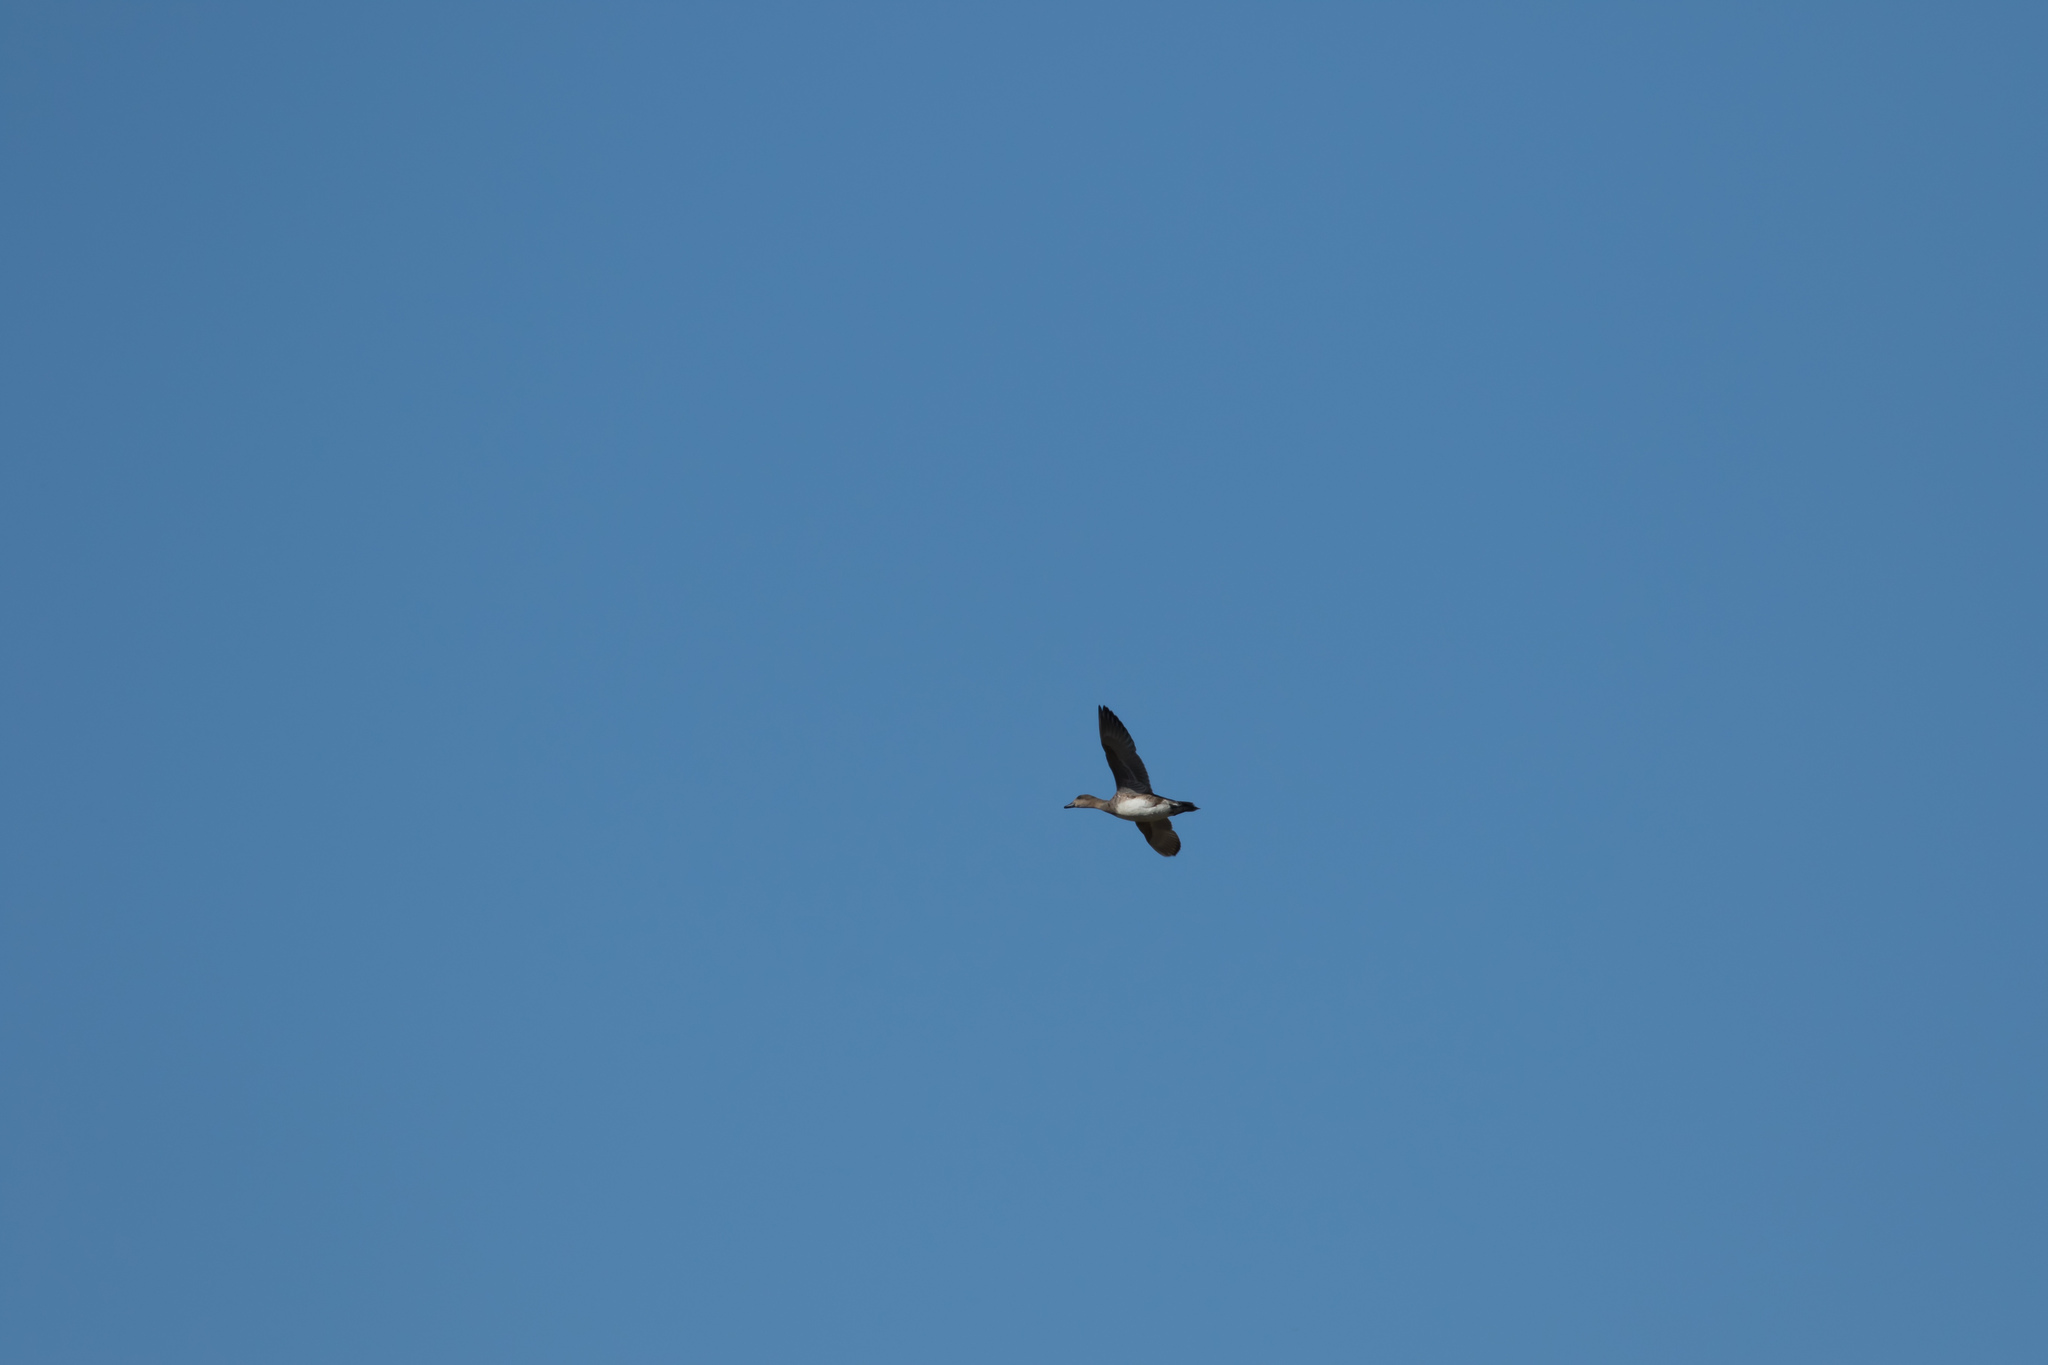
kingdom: Animalia
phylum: Chordata
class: Aves
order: Anseriformes
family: Anatidae
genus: Mareca
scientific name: Mareca strepera
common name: Gadwall
